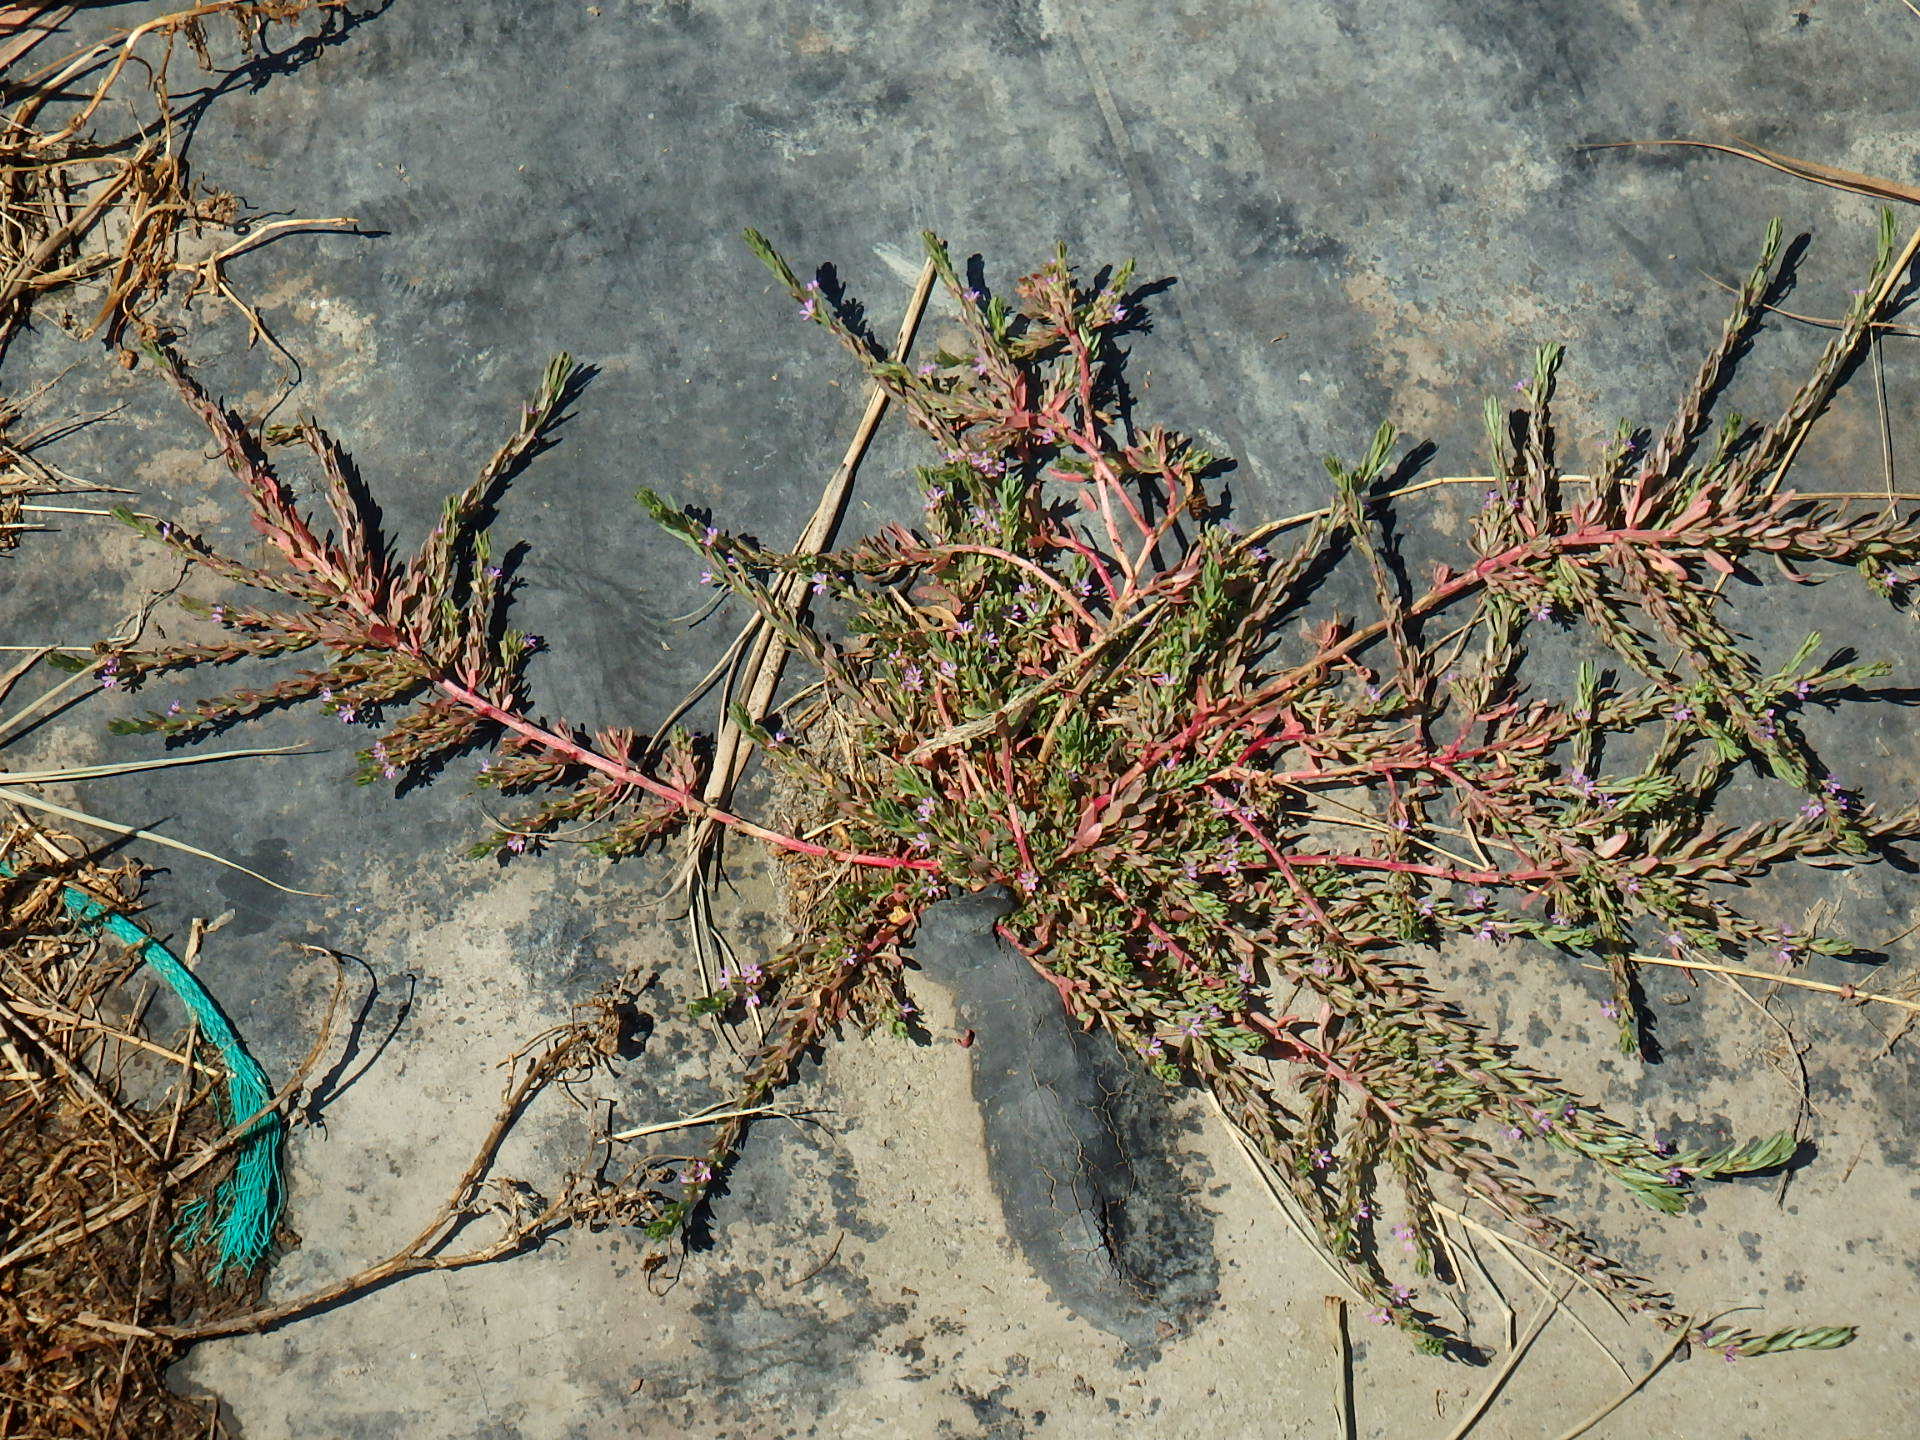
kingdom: Plantae
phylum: Tracheophyta
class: Magnoliopsida
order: Myrtales
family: Lythraceae
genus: Lythrum
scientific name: Lythrum hyssopifolia
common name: Grass-poly
